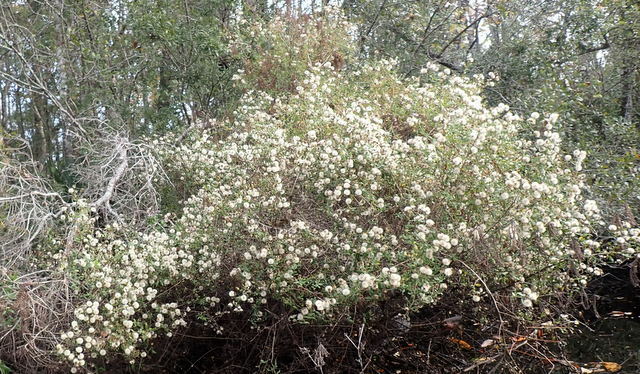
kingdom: Plantae
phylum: Tracheophyta
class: Magnoliopsida
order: Asterales
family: Asteraceae
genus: Ampelaster
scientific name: Ampelaster carolinianus
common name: Climbing aster
